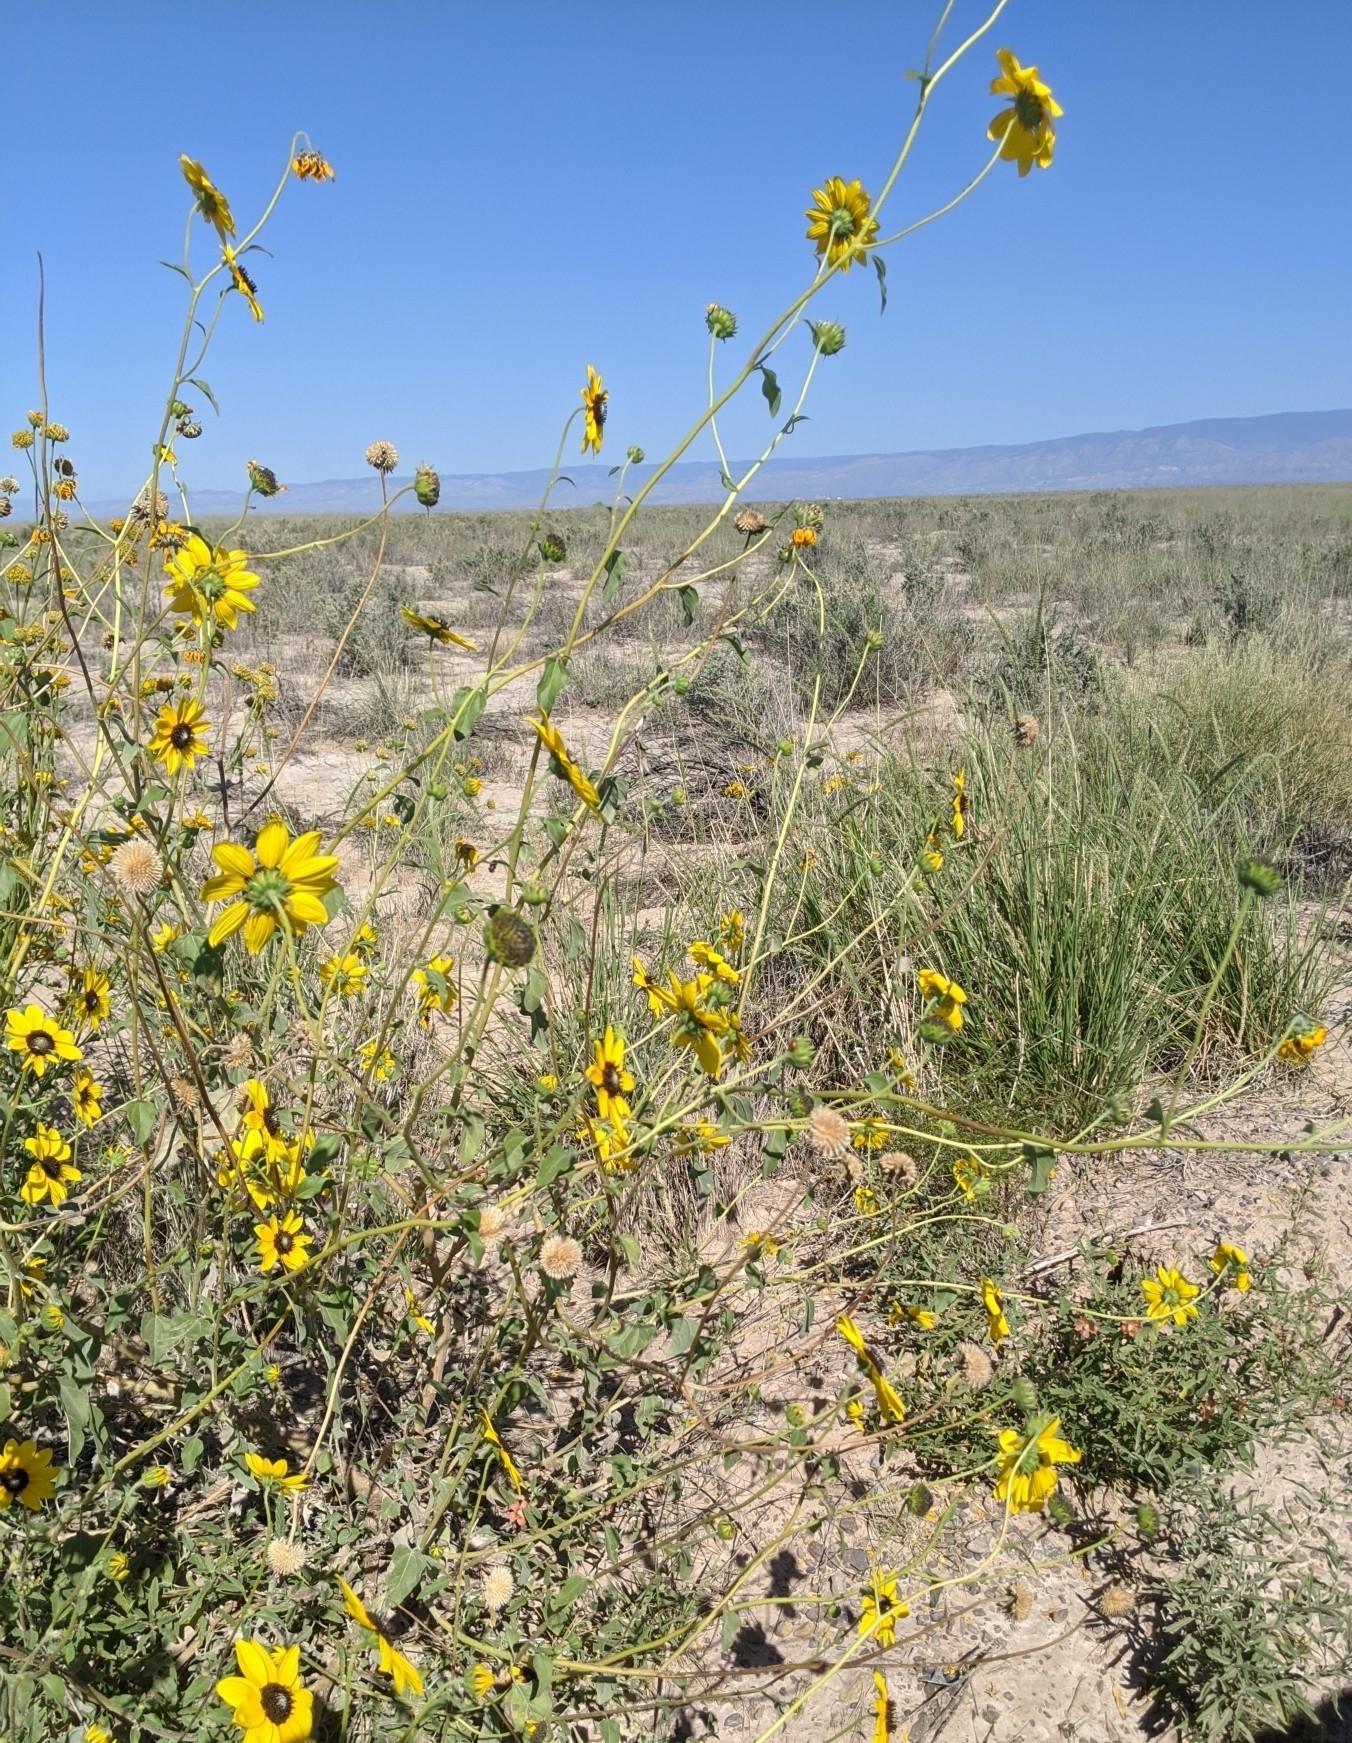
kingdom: Plantae
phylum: Tracheophyta
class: Magnoliopsida
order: Asterales
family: Asteraceae
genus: Helianthus
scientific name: Helianthus petiolaris
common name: Lesser sunflower
